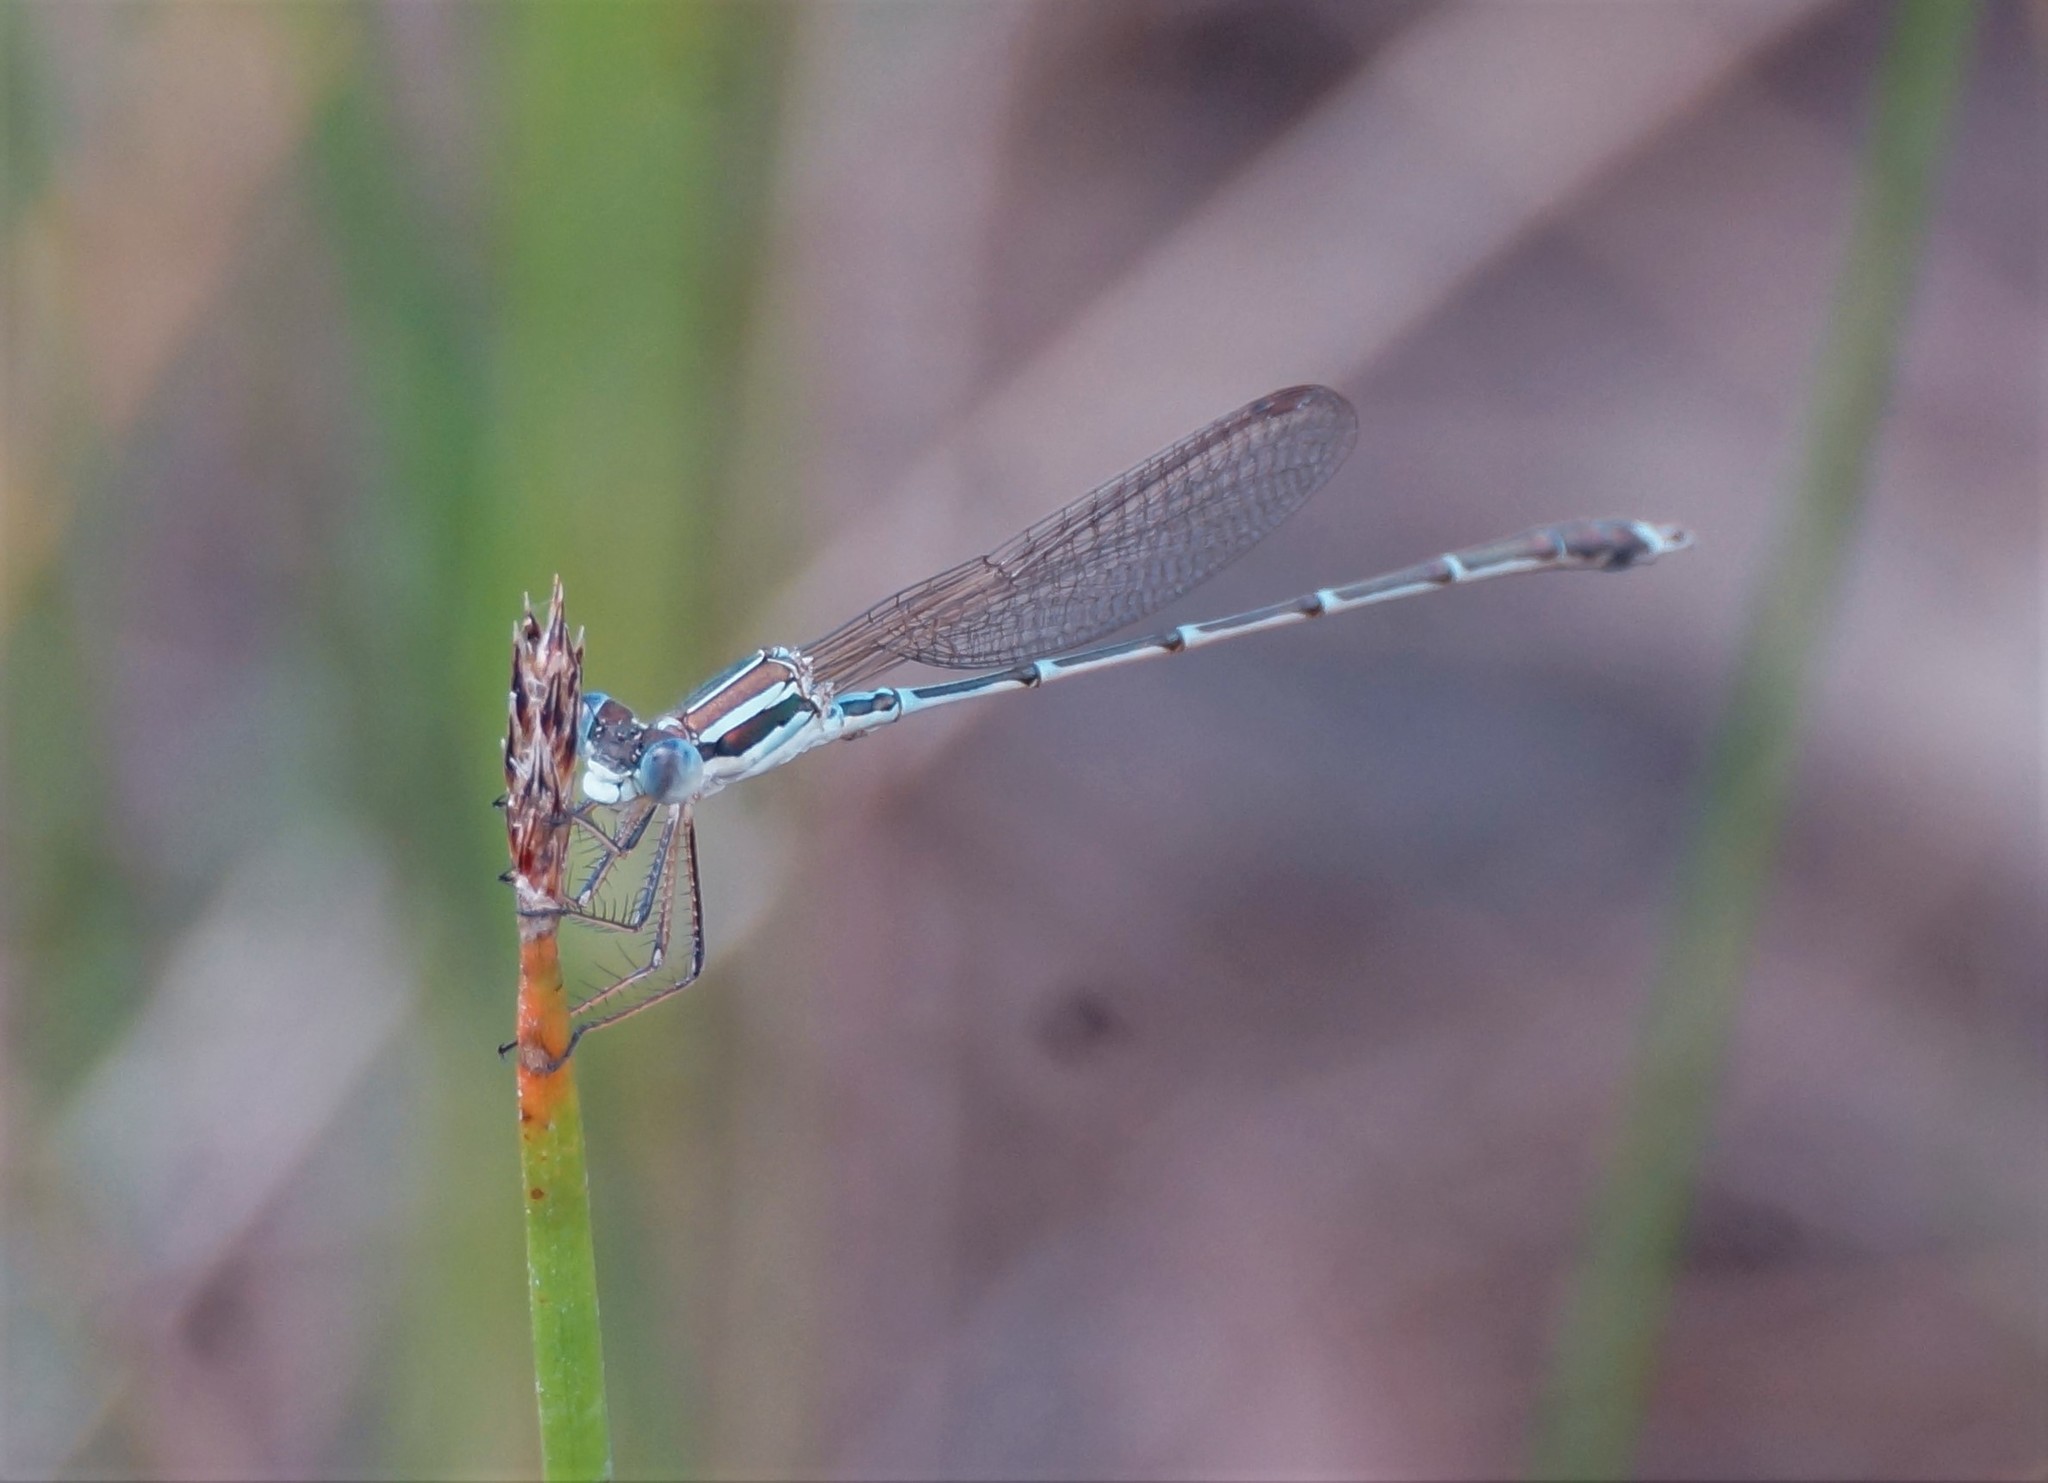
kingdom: Animalia
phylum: Arthropoda
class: Insecta
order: Odonata
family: Lestidae
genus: Austrolestes
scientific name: Austrolestes analis
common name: Slender ringtail
